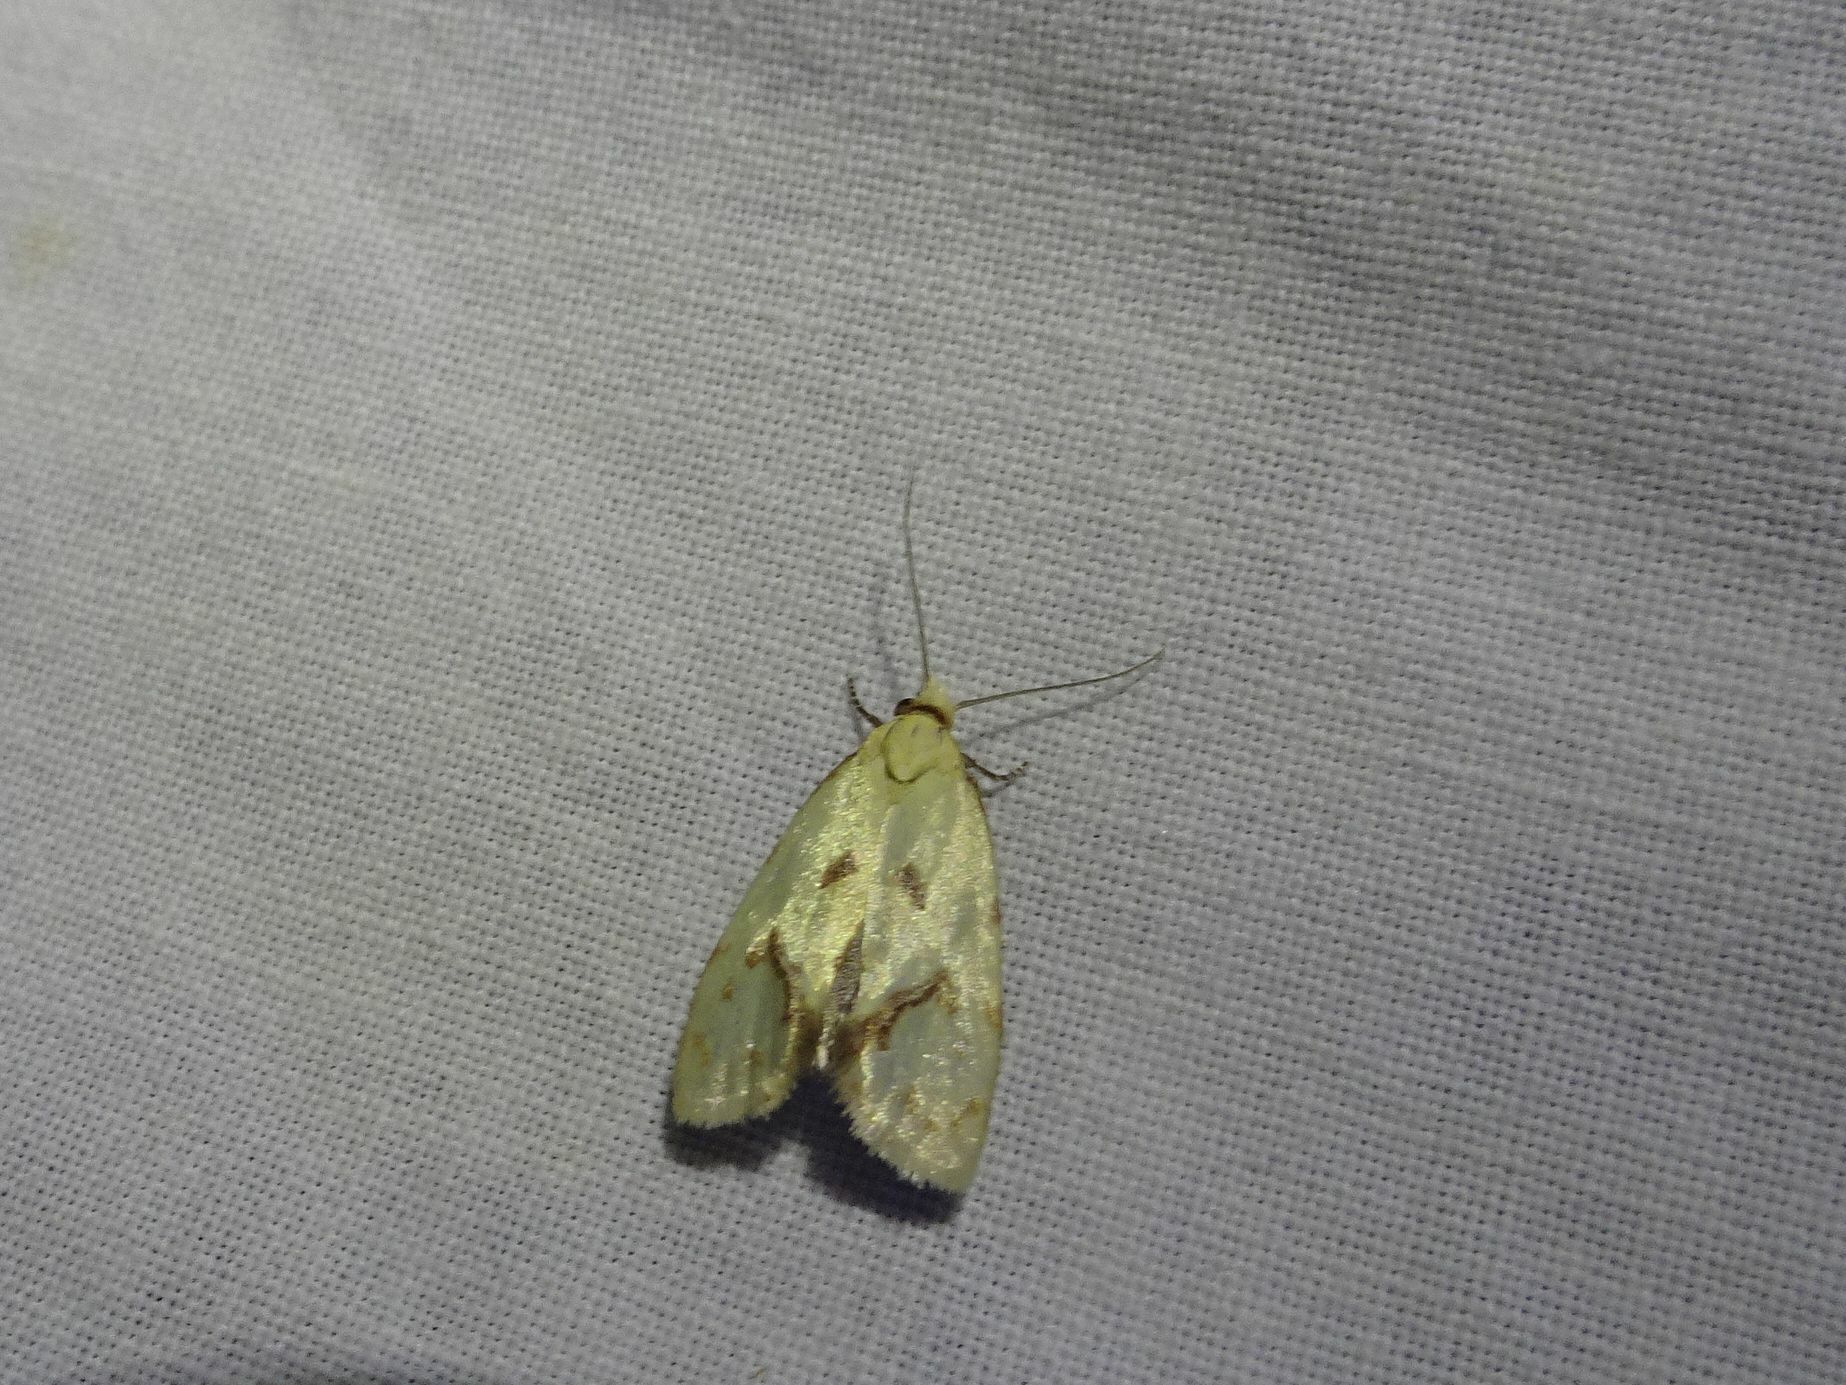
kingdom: Animalia
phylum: Arthropoda
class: Insecta
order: Lepidoptera
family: Tortricidae
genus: Agapeta
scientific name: Agapeta hamana
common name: Common yellow conch
